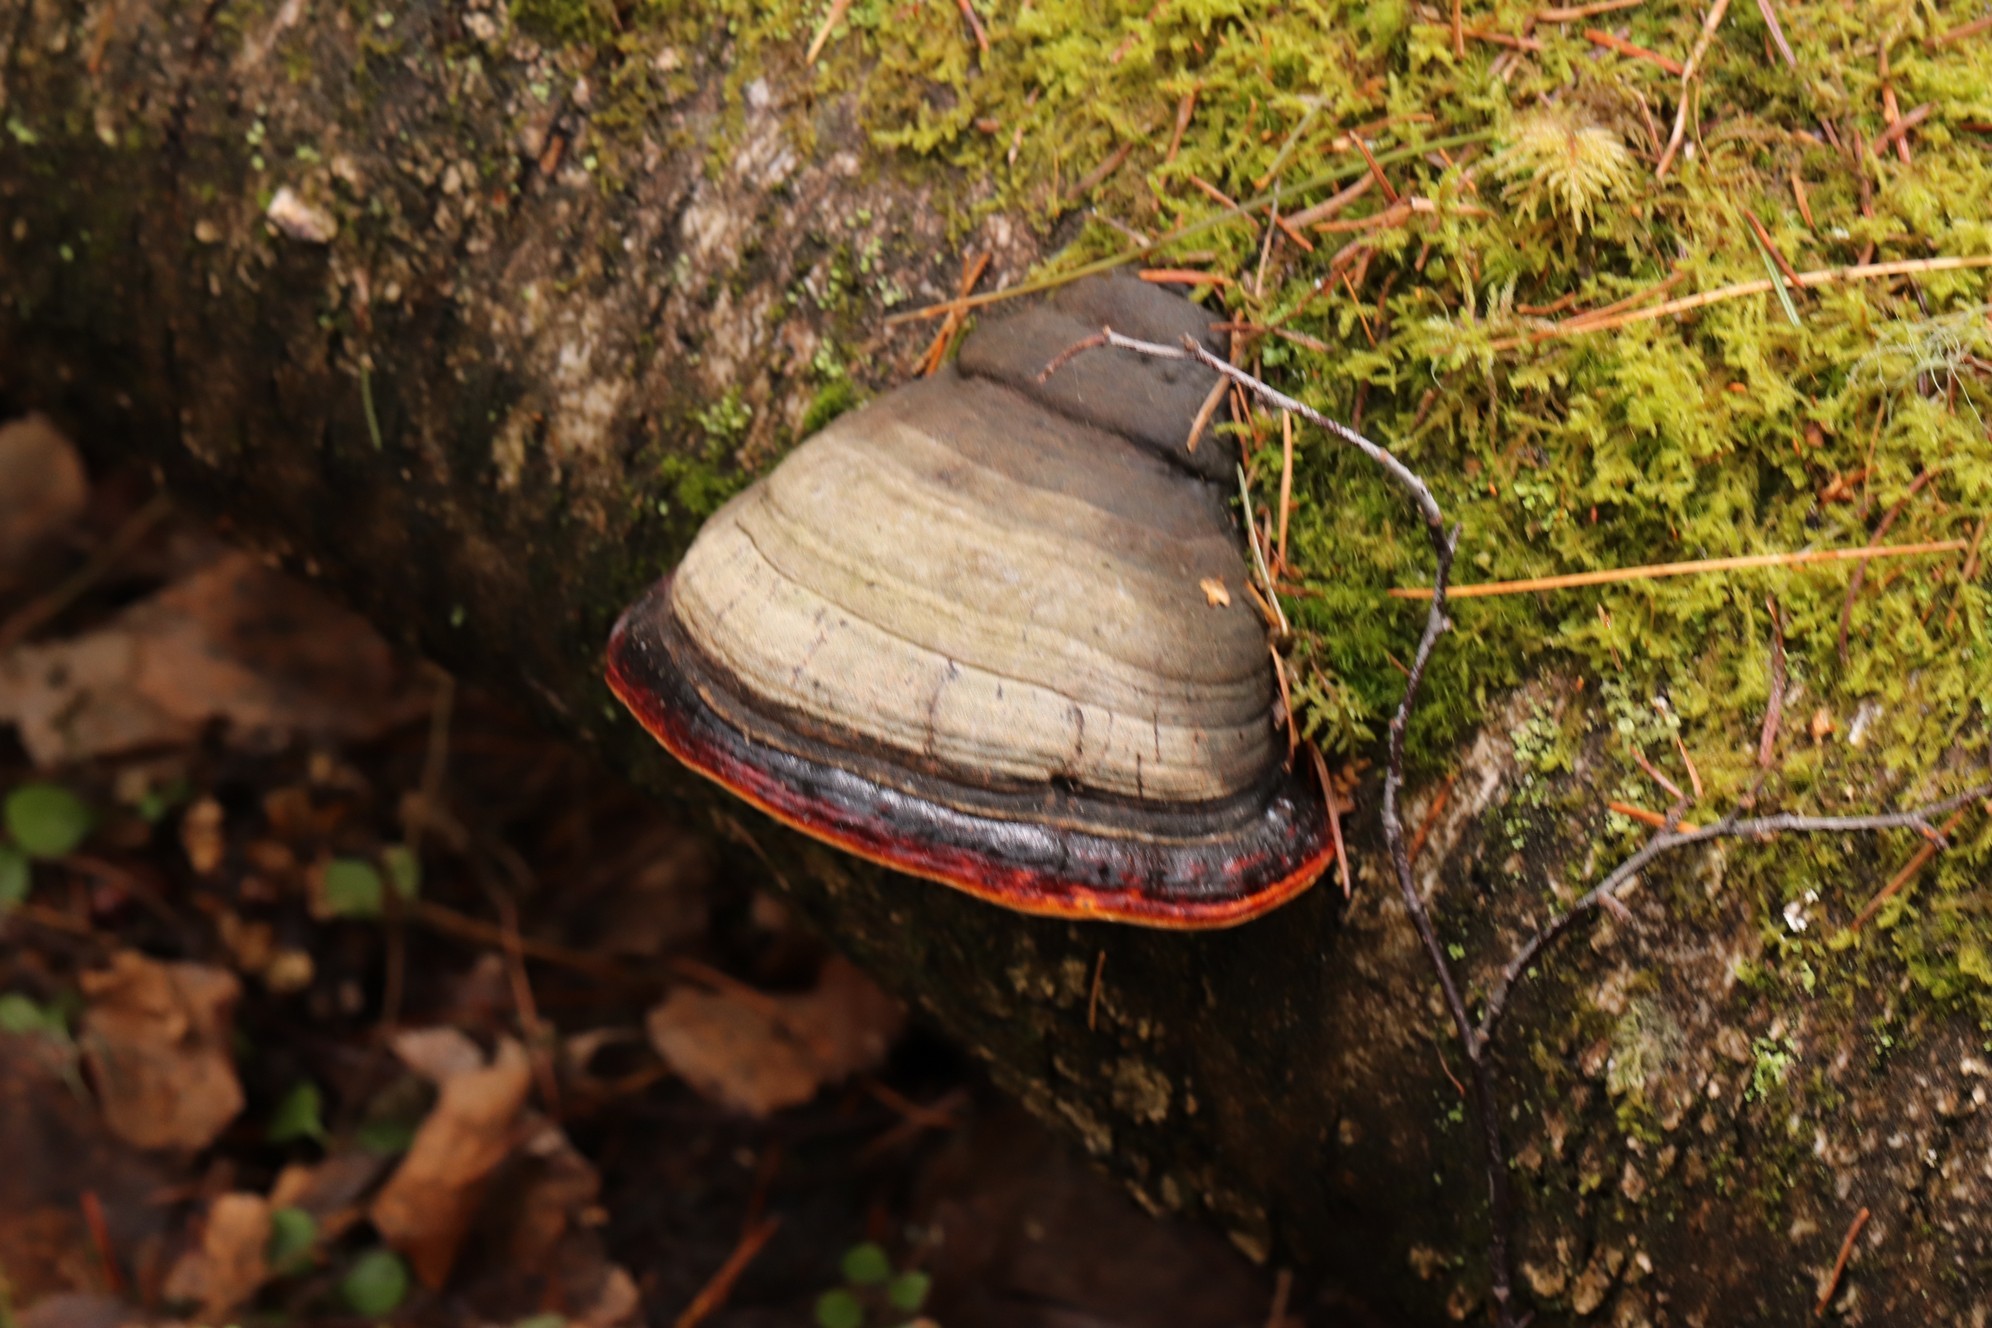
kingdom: Fungi
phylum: Basidiomycota
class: Agaricomycetes
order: Polyporales
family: Fomitopsidaceae
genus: Fomitopsis
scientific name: Fomitopsis pinicola
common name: Red-belted bracket
